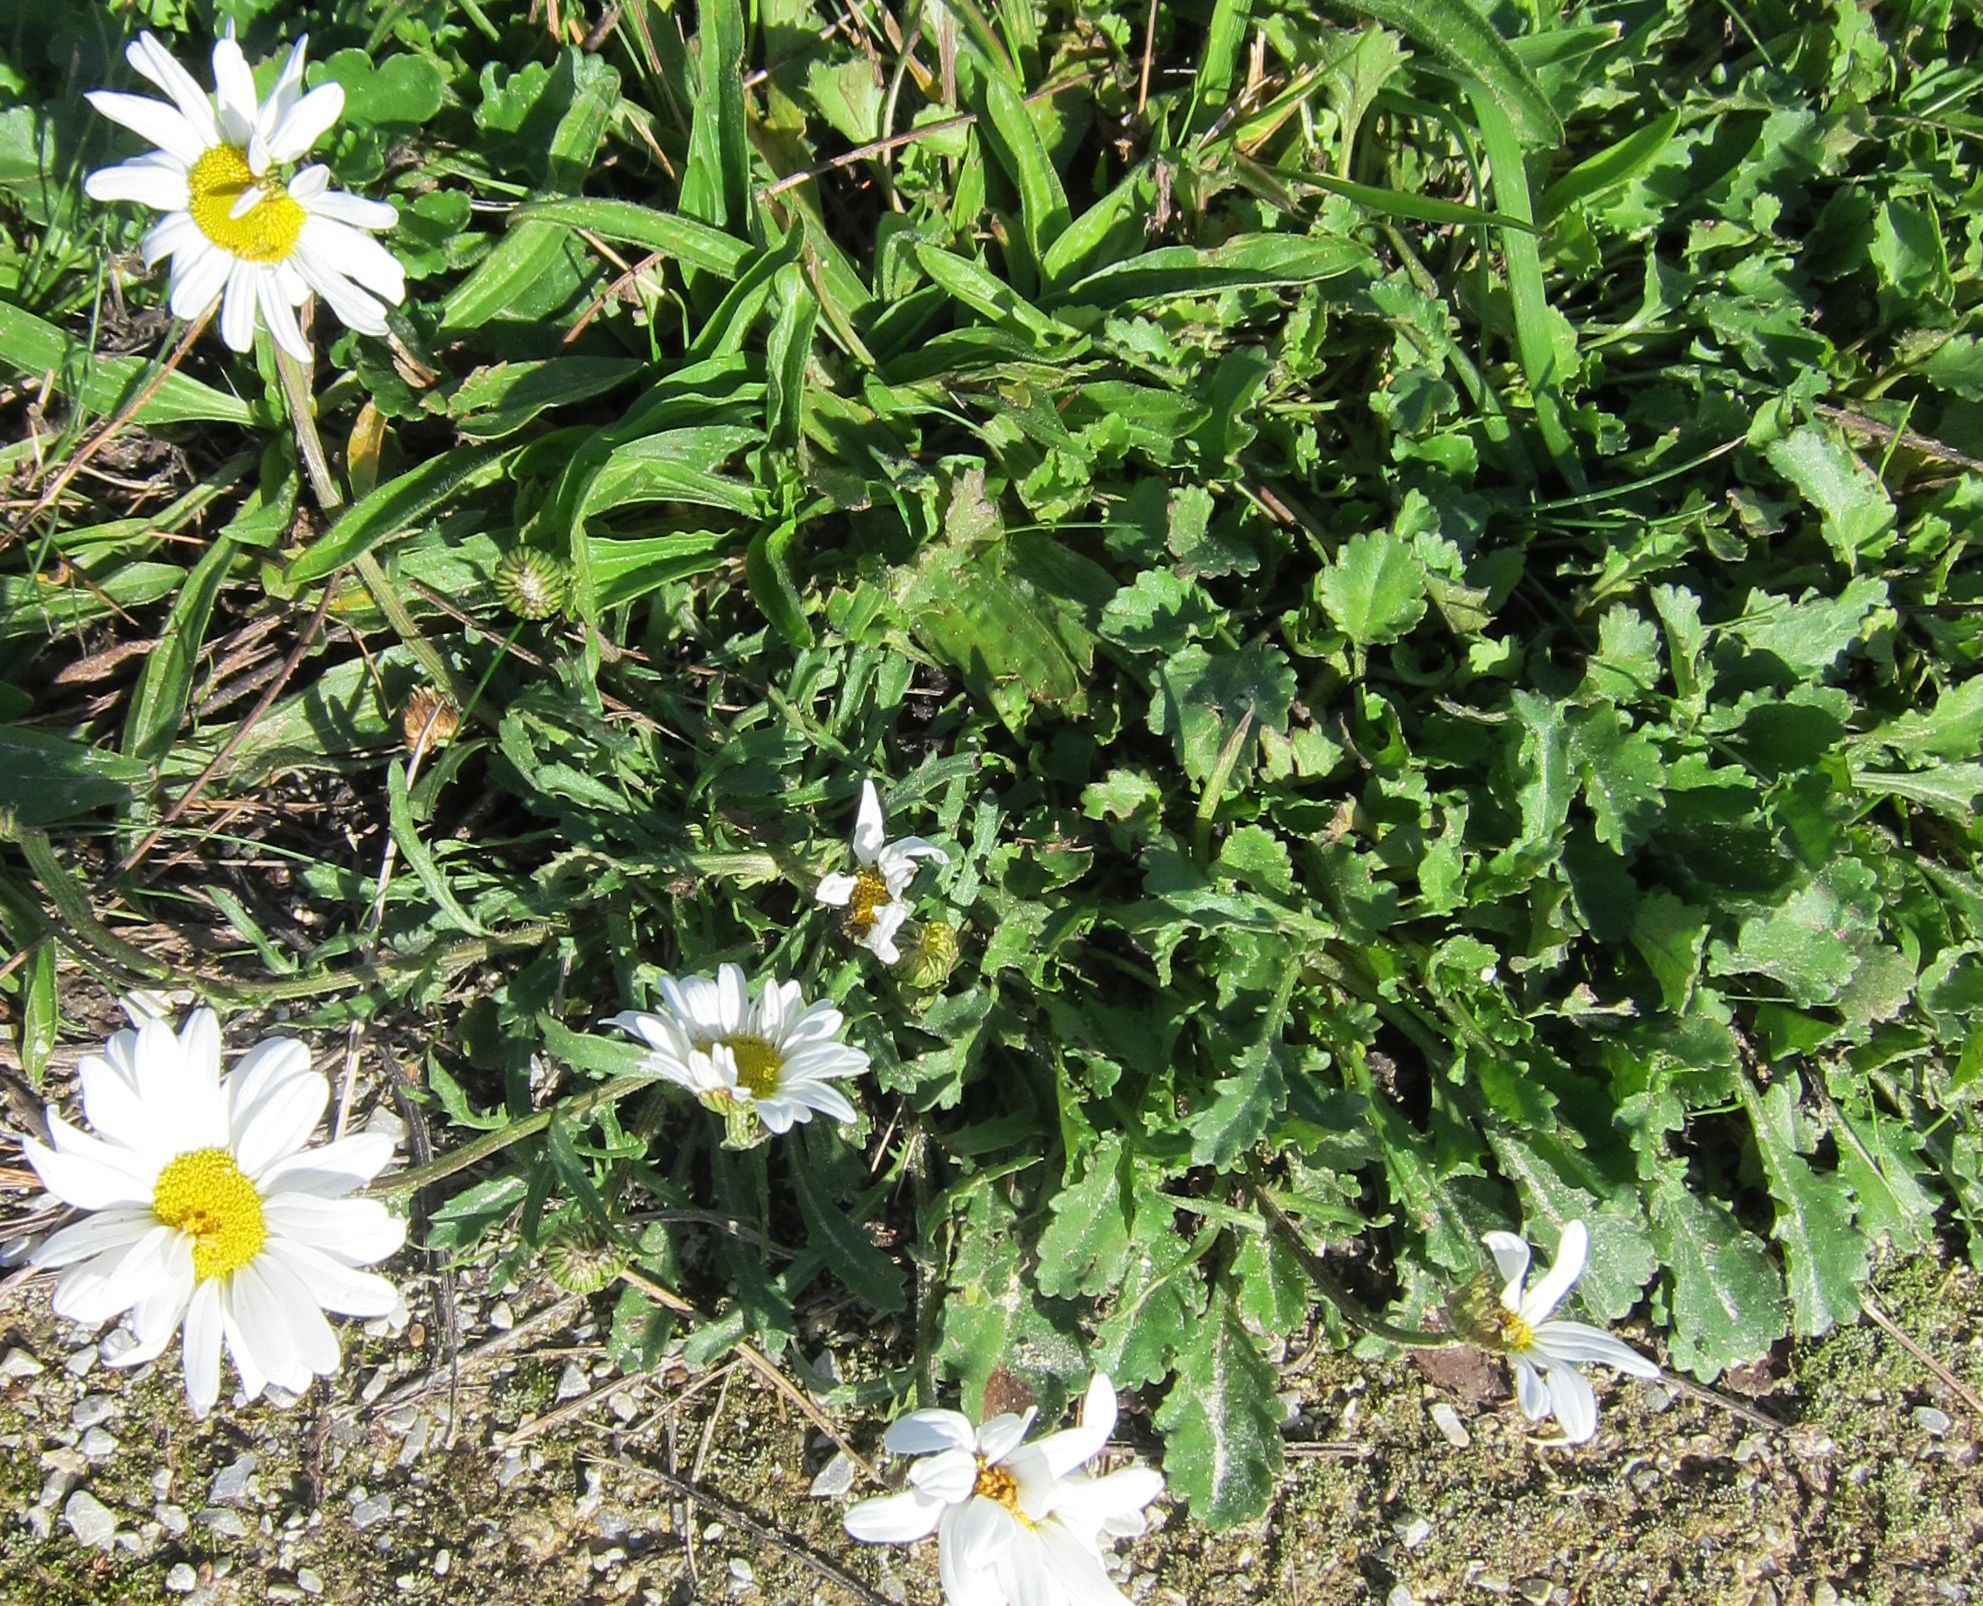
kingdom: Plantae
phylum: Tracheophyta
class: Magnoliopsida
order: Asterales
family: Asteraceae
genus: Leucanthemum
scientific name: Leucanthemum vulgare
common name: Oxeye daisy
